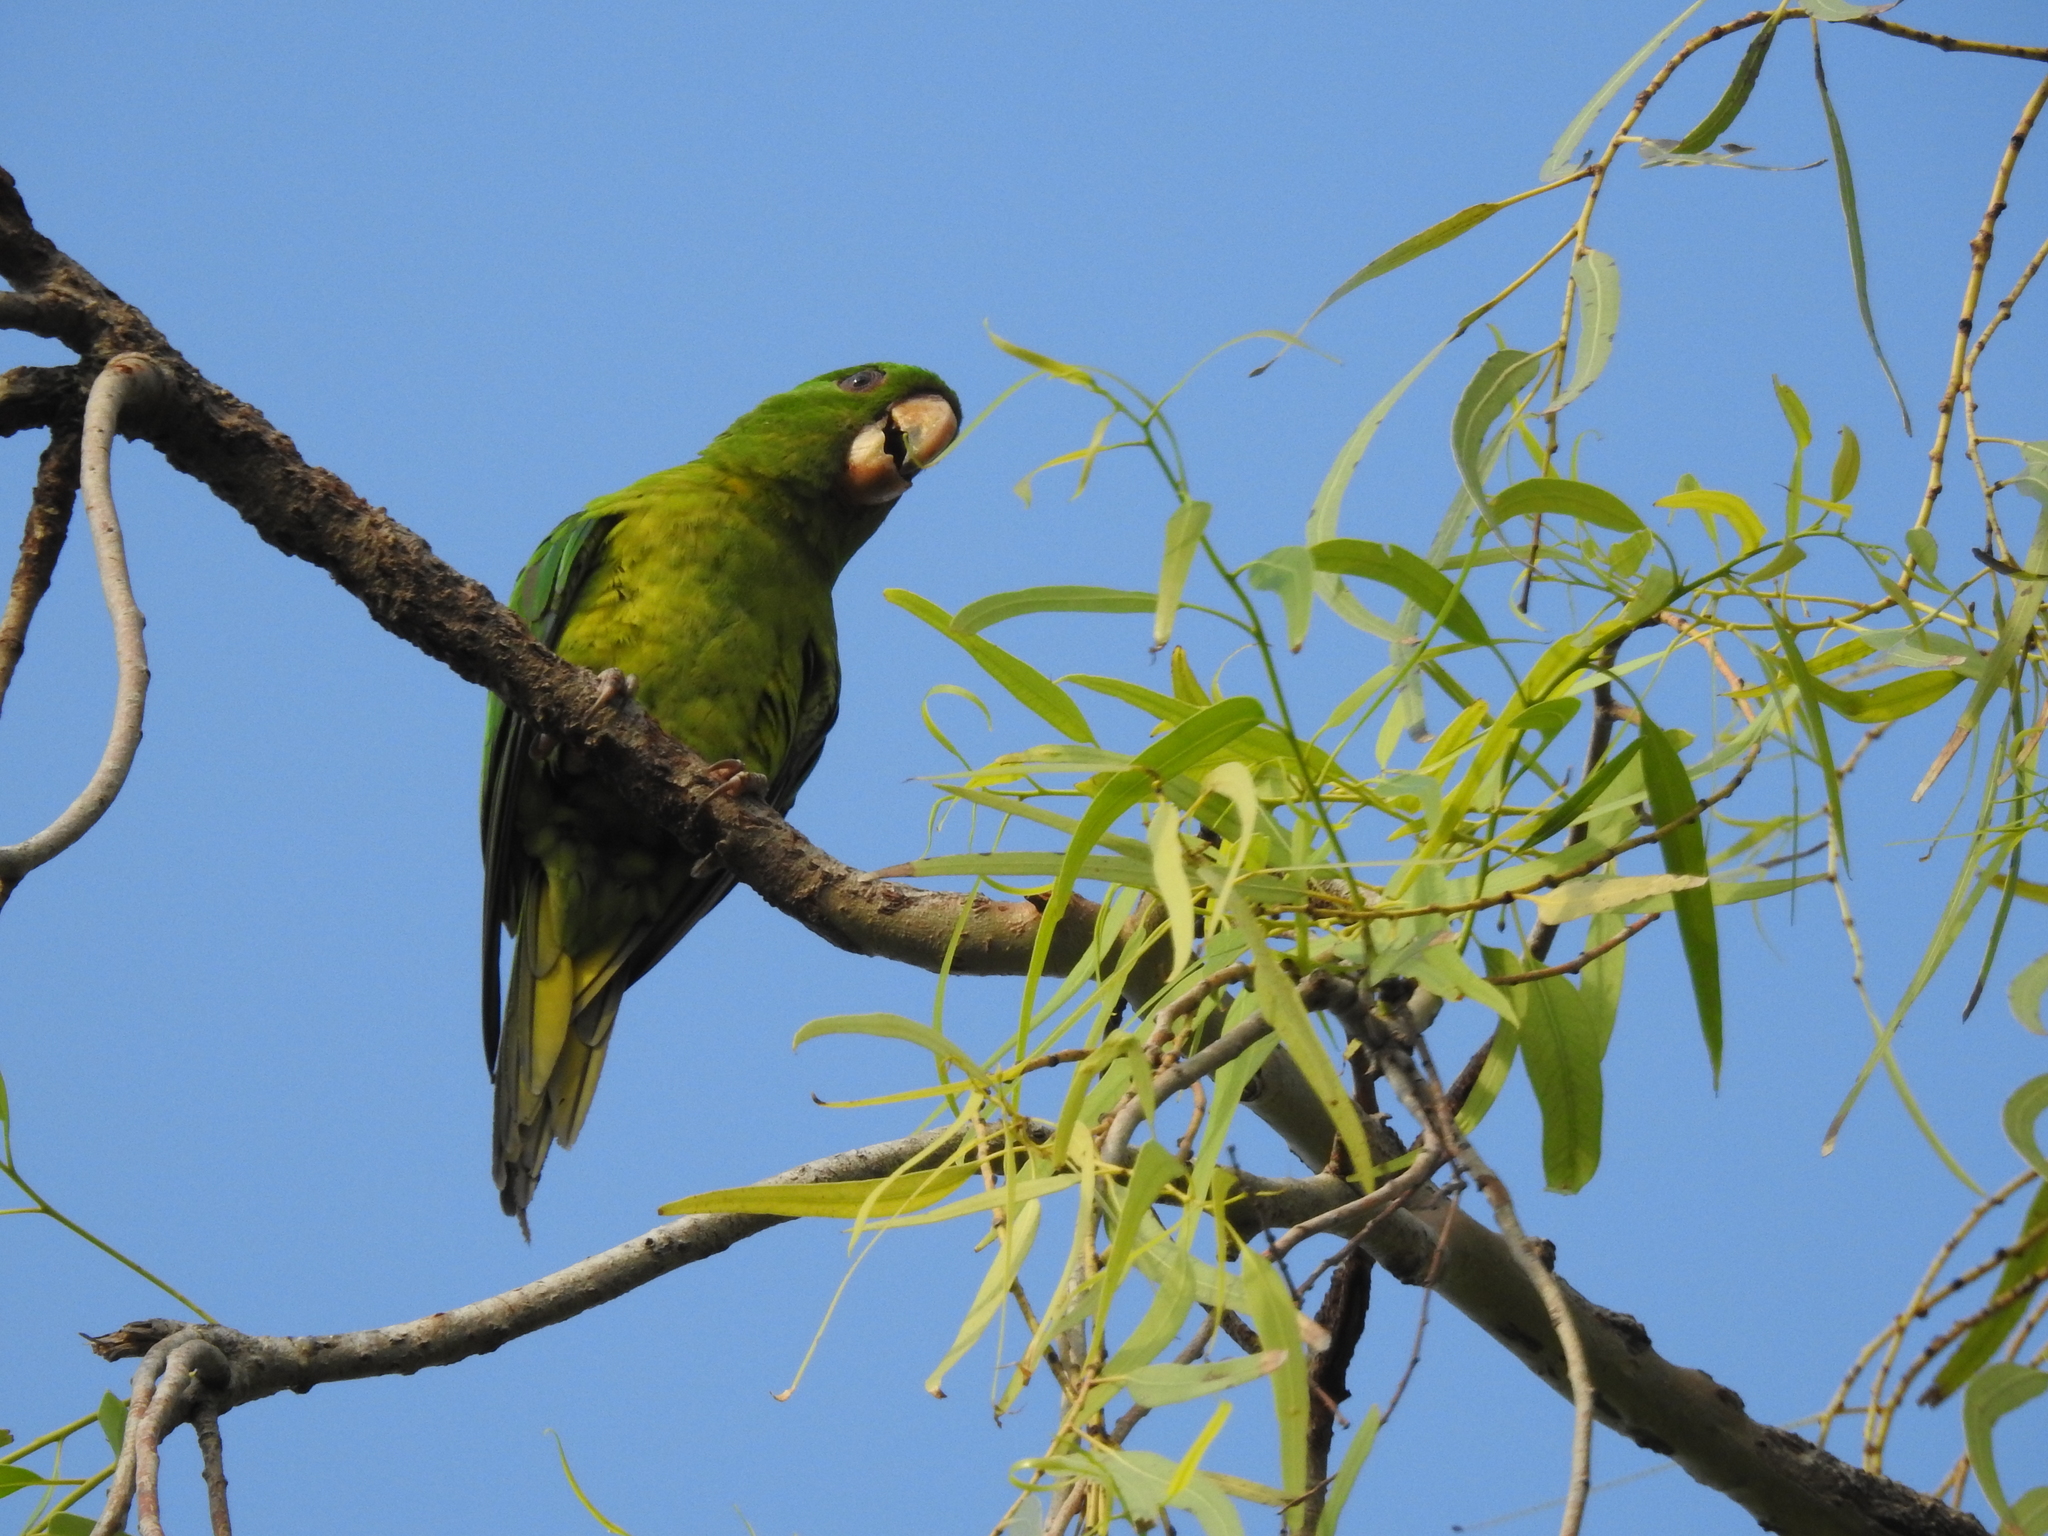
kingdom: Animalia
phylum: Chordata
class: Aves
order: Psittaciformes
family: Psittacidae
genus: Aratinga
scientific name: Aratinga holochlora
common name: Green parakeet
